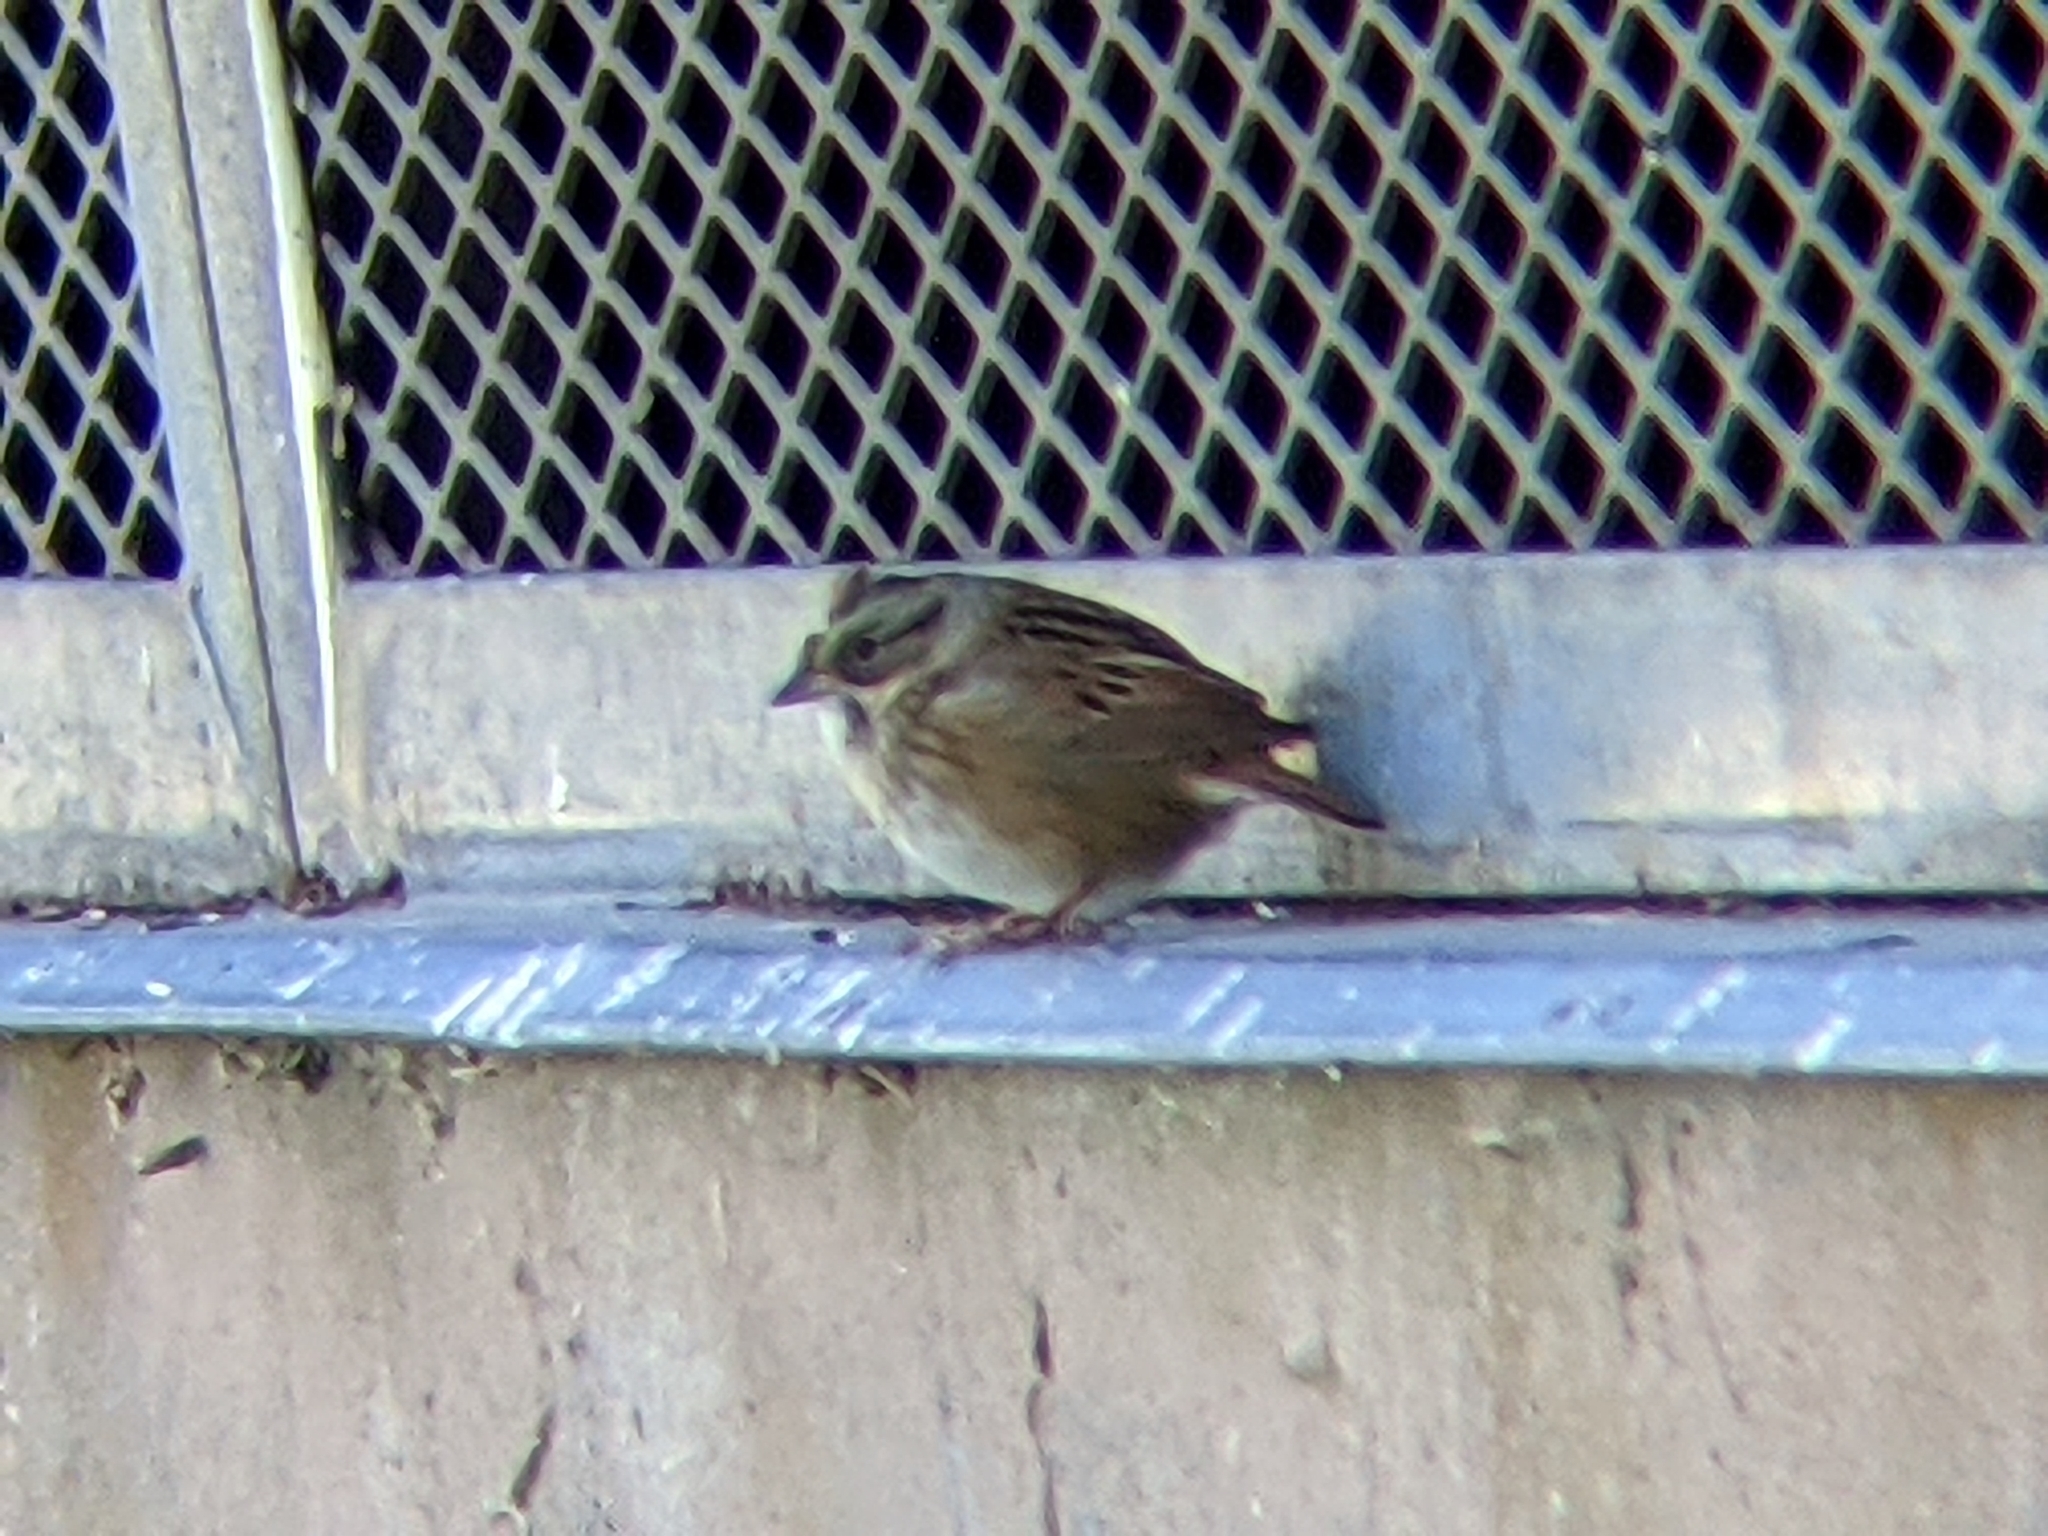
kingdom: Animalia
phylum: Chordata
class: Aves
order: Passeriformes
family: Passerellidae
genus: Melospiza
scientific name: Melospiza georgiana
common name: Swamp sparrow
